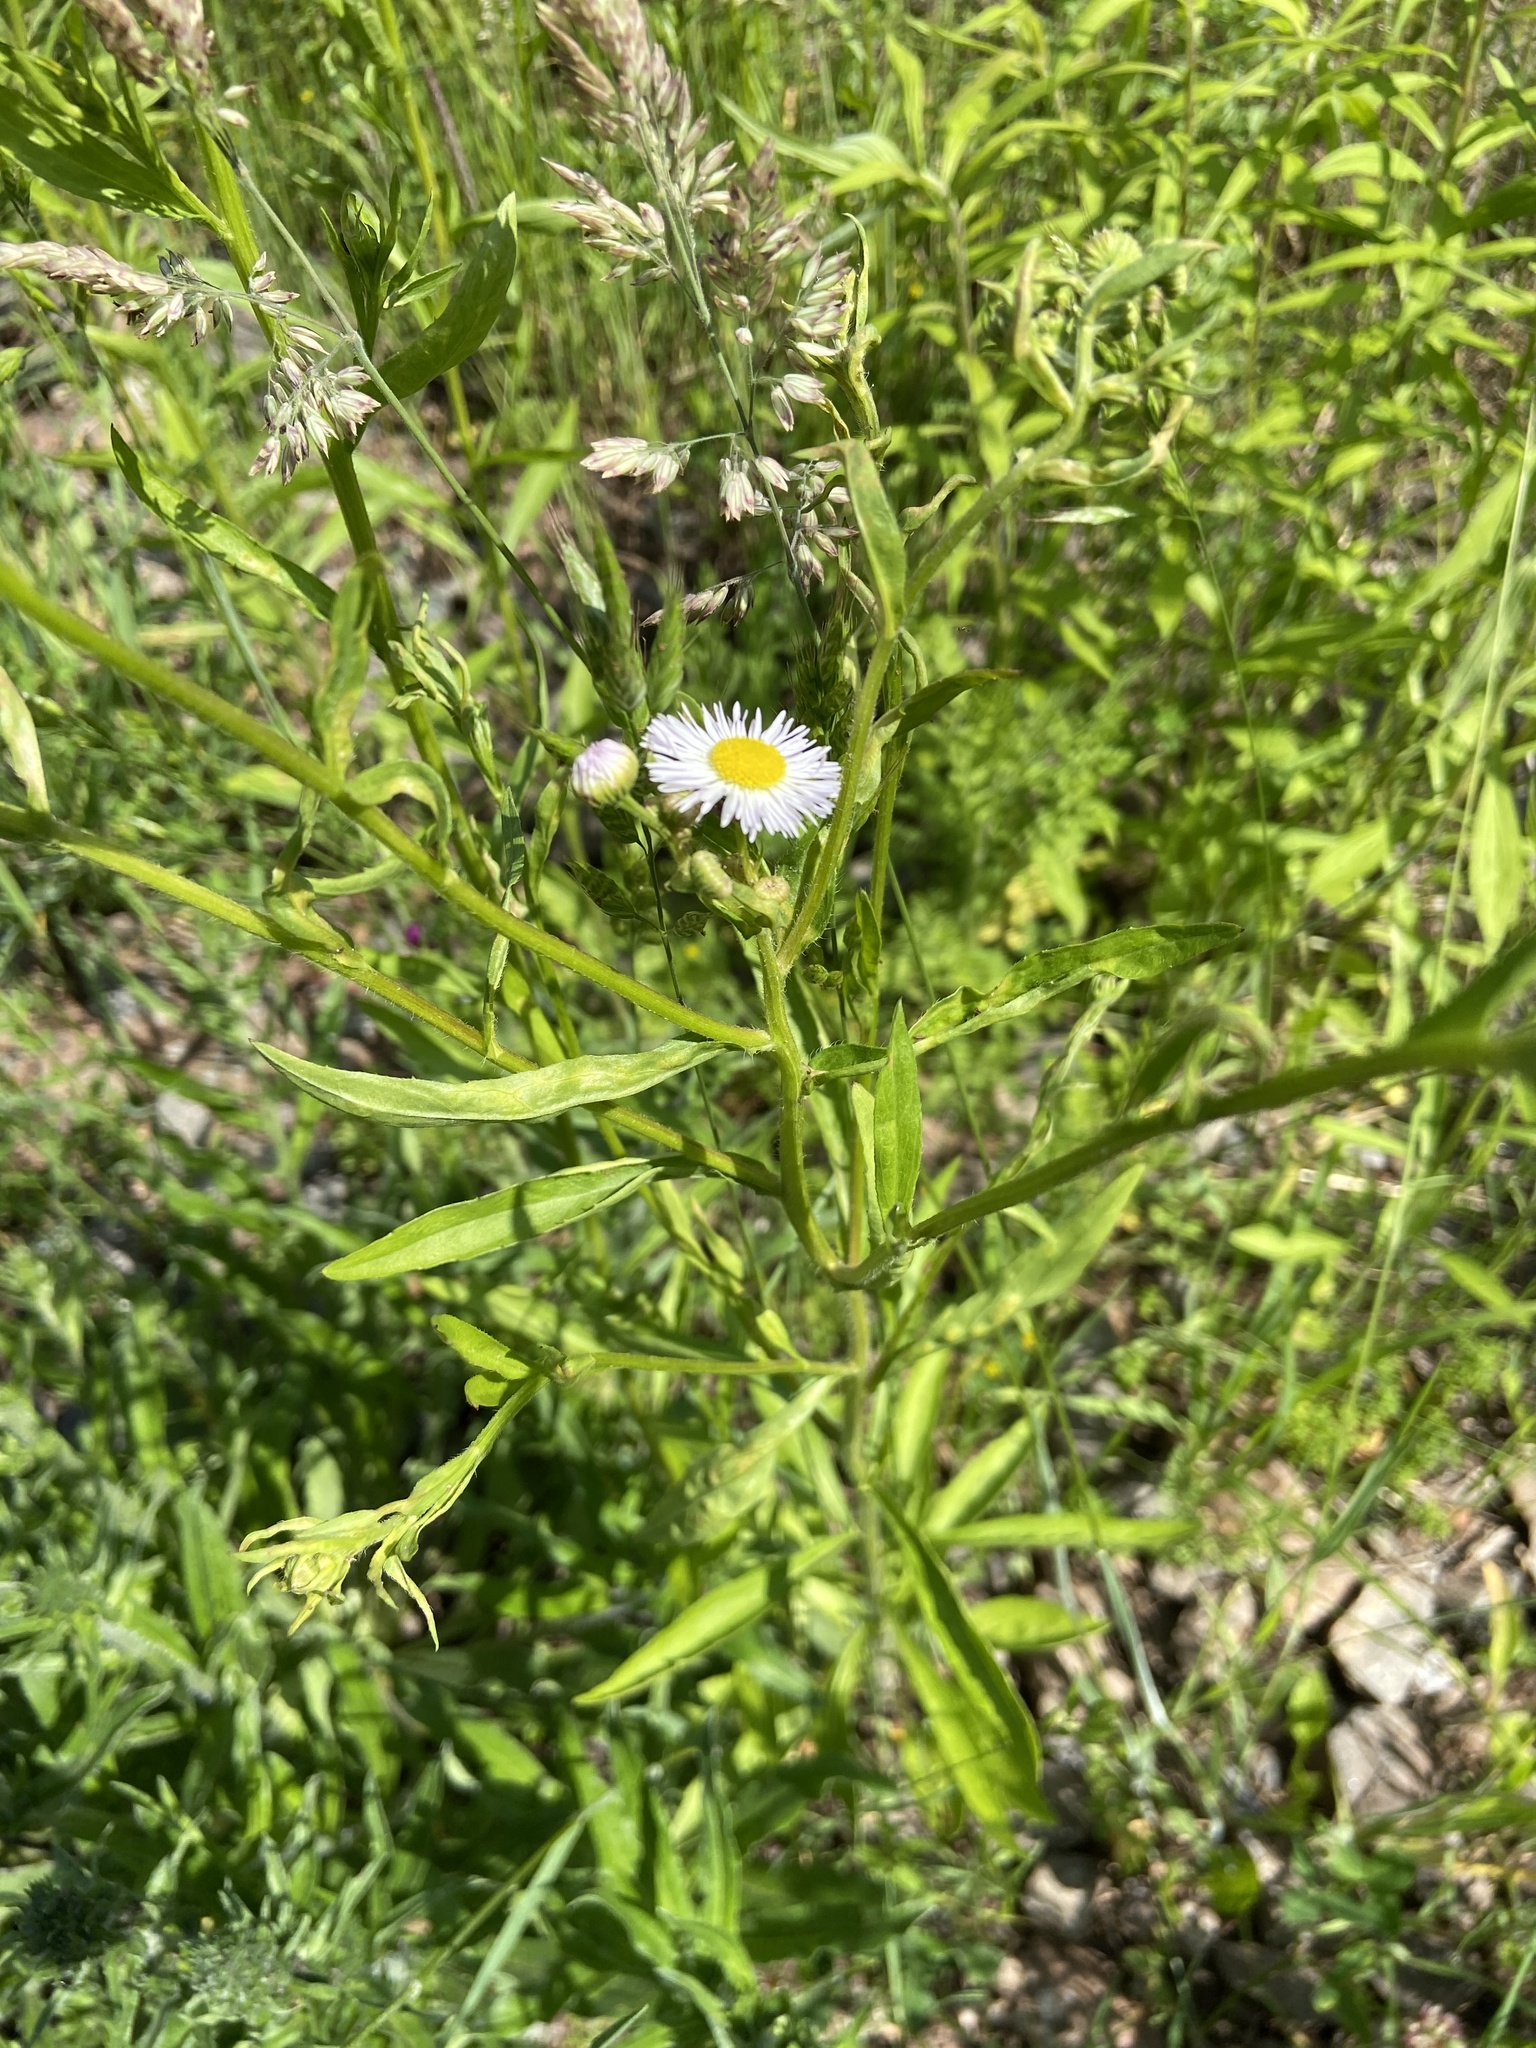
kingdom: Plantae
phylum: Tracheophyta
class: Magnoliopsida
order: Asterales
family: Asteraceae
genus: Erigeron
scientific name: Erigeron annuus
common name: Tall fleabane
